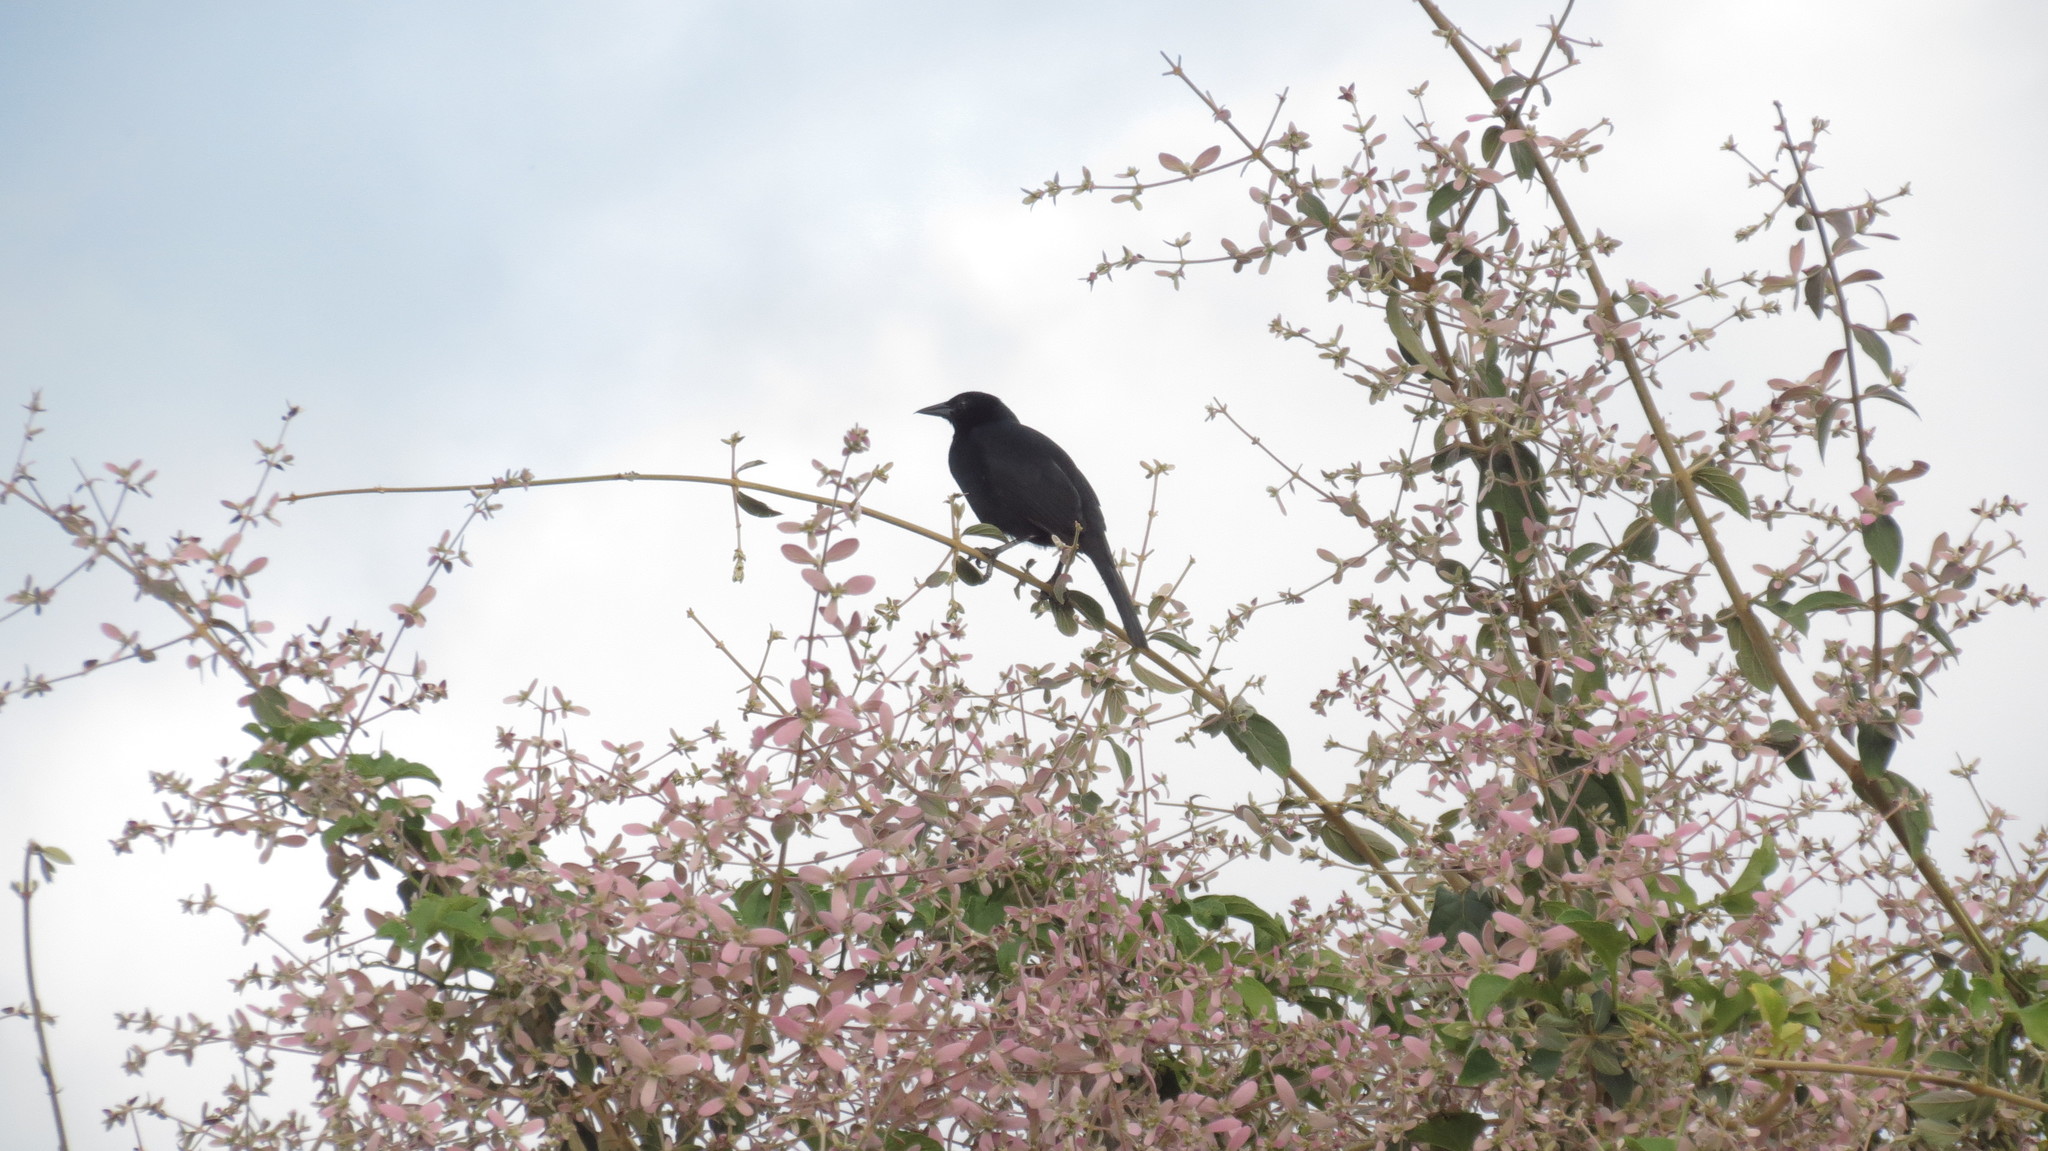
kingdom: Animalia
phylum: Chordata
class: Aves
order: Passeriformes
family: Icteridae
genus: Dives
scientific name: Dives dives
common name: Melodious blackbird
